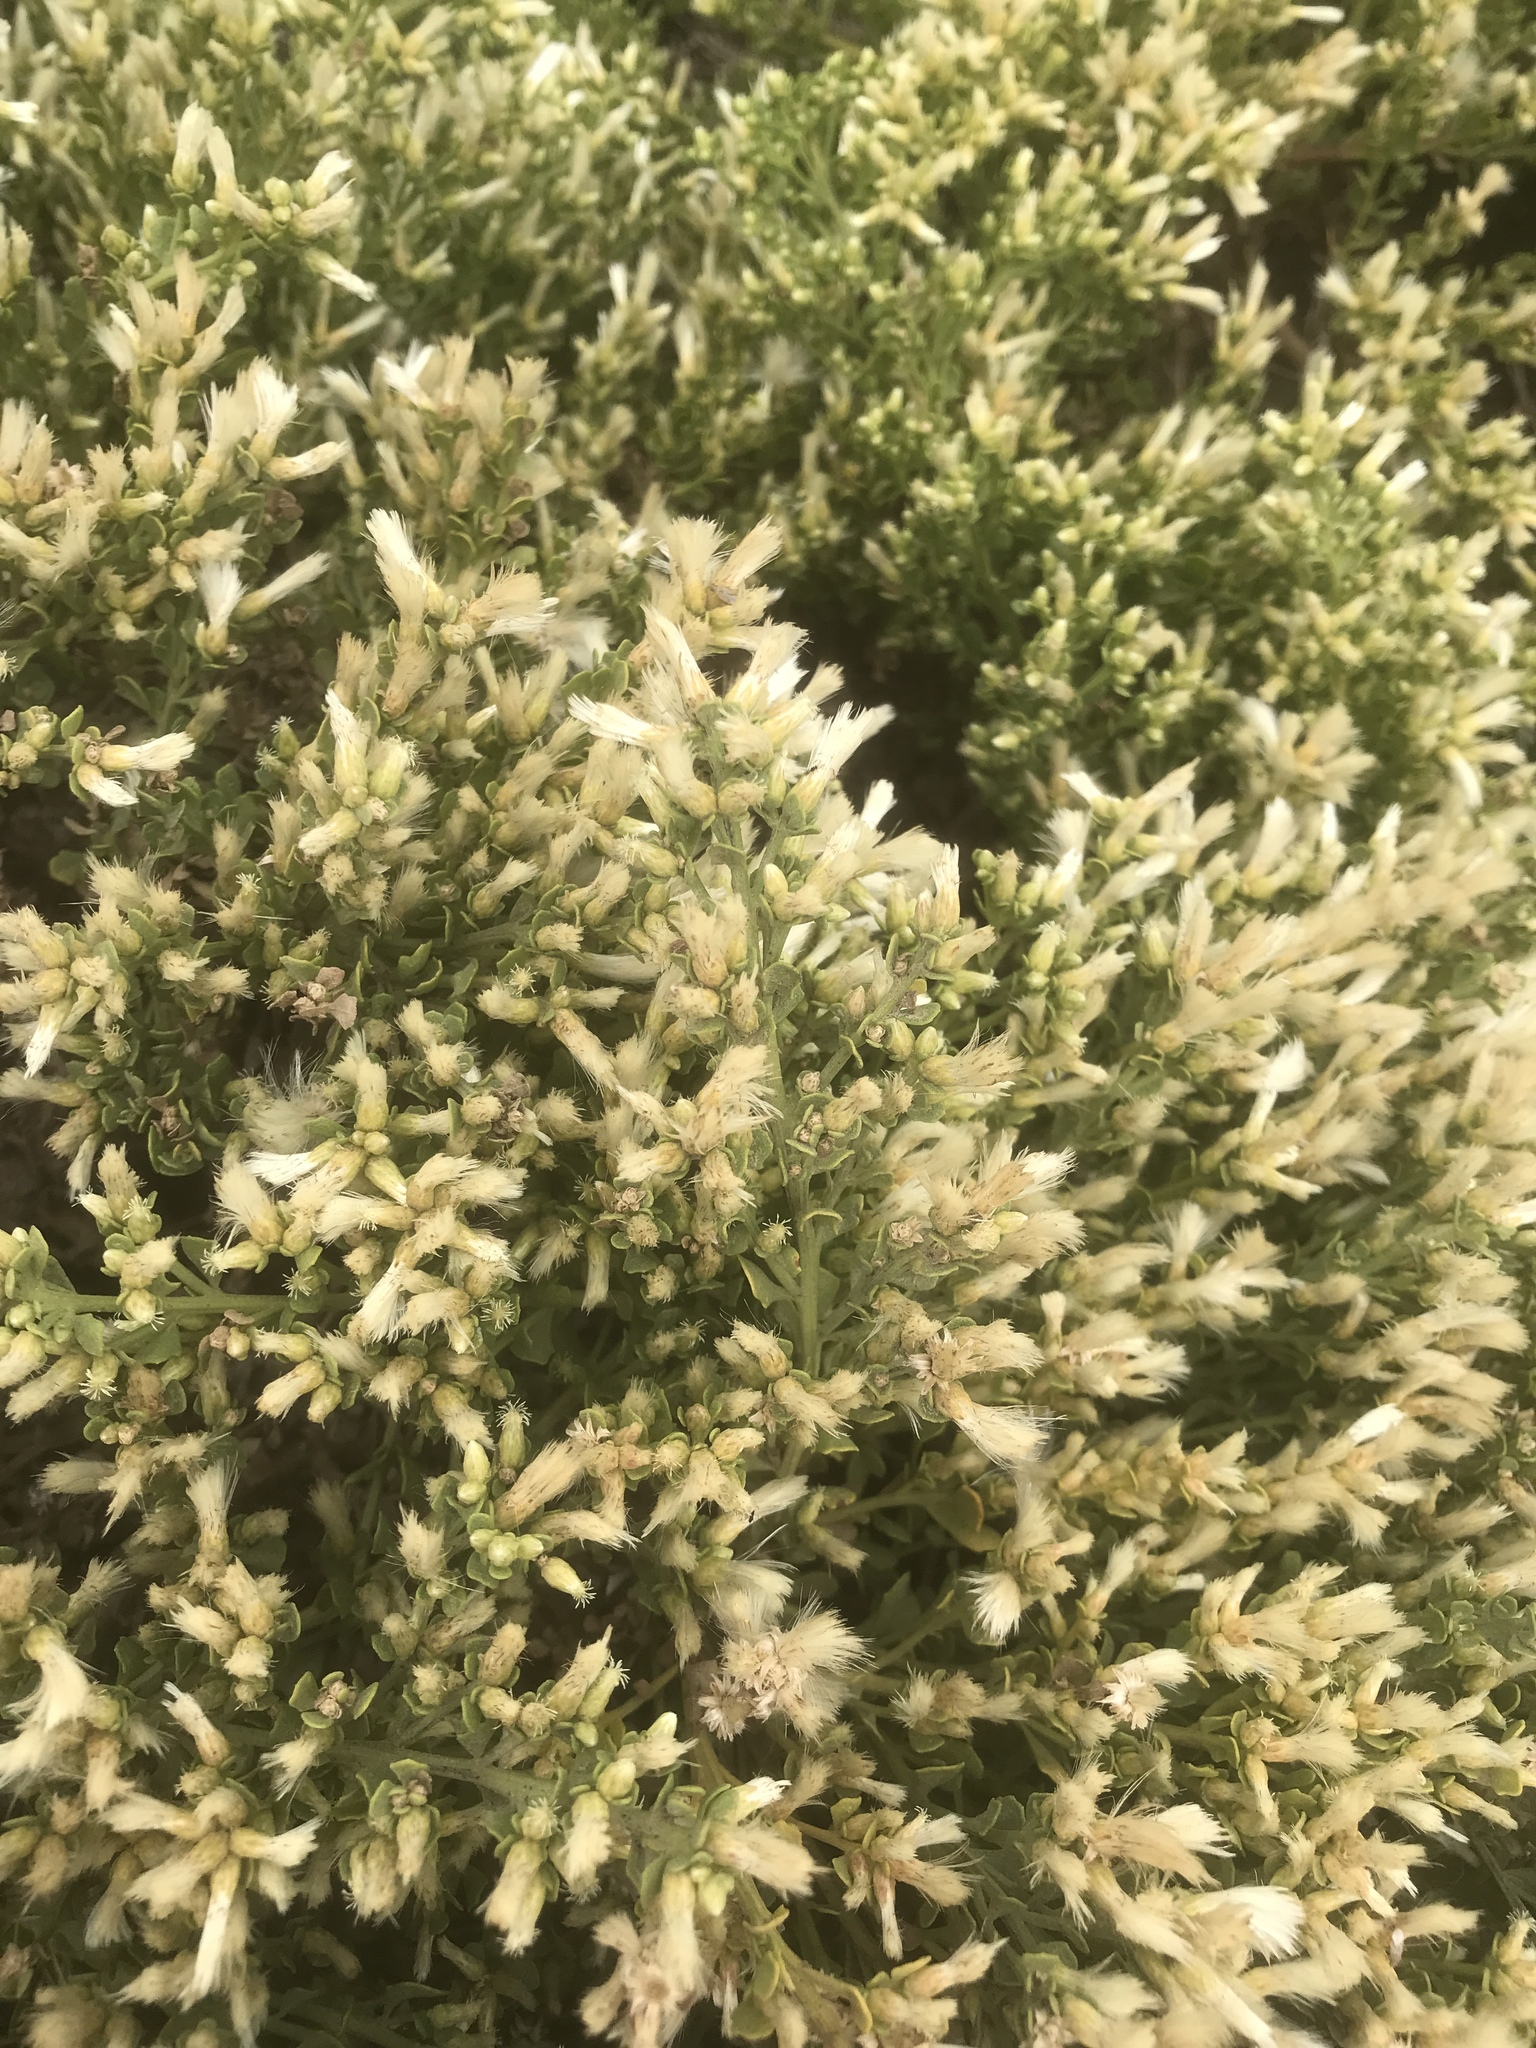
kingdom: Plantae
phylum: Tracheophyta
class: Magnoliopsida
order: Asterales
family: Asteraceae
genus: Baccharis
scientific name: Baccharis pilularis
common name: Coyotebrush
